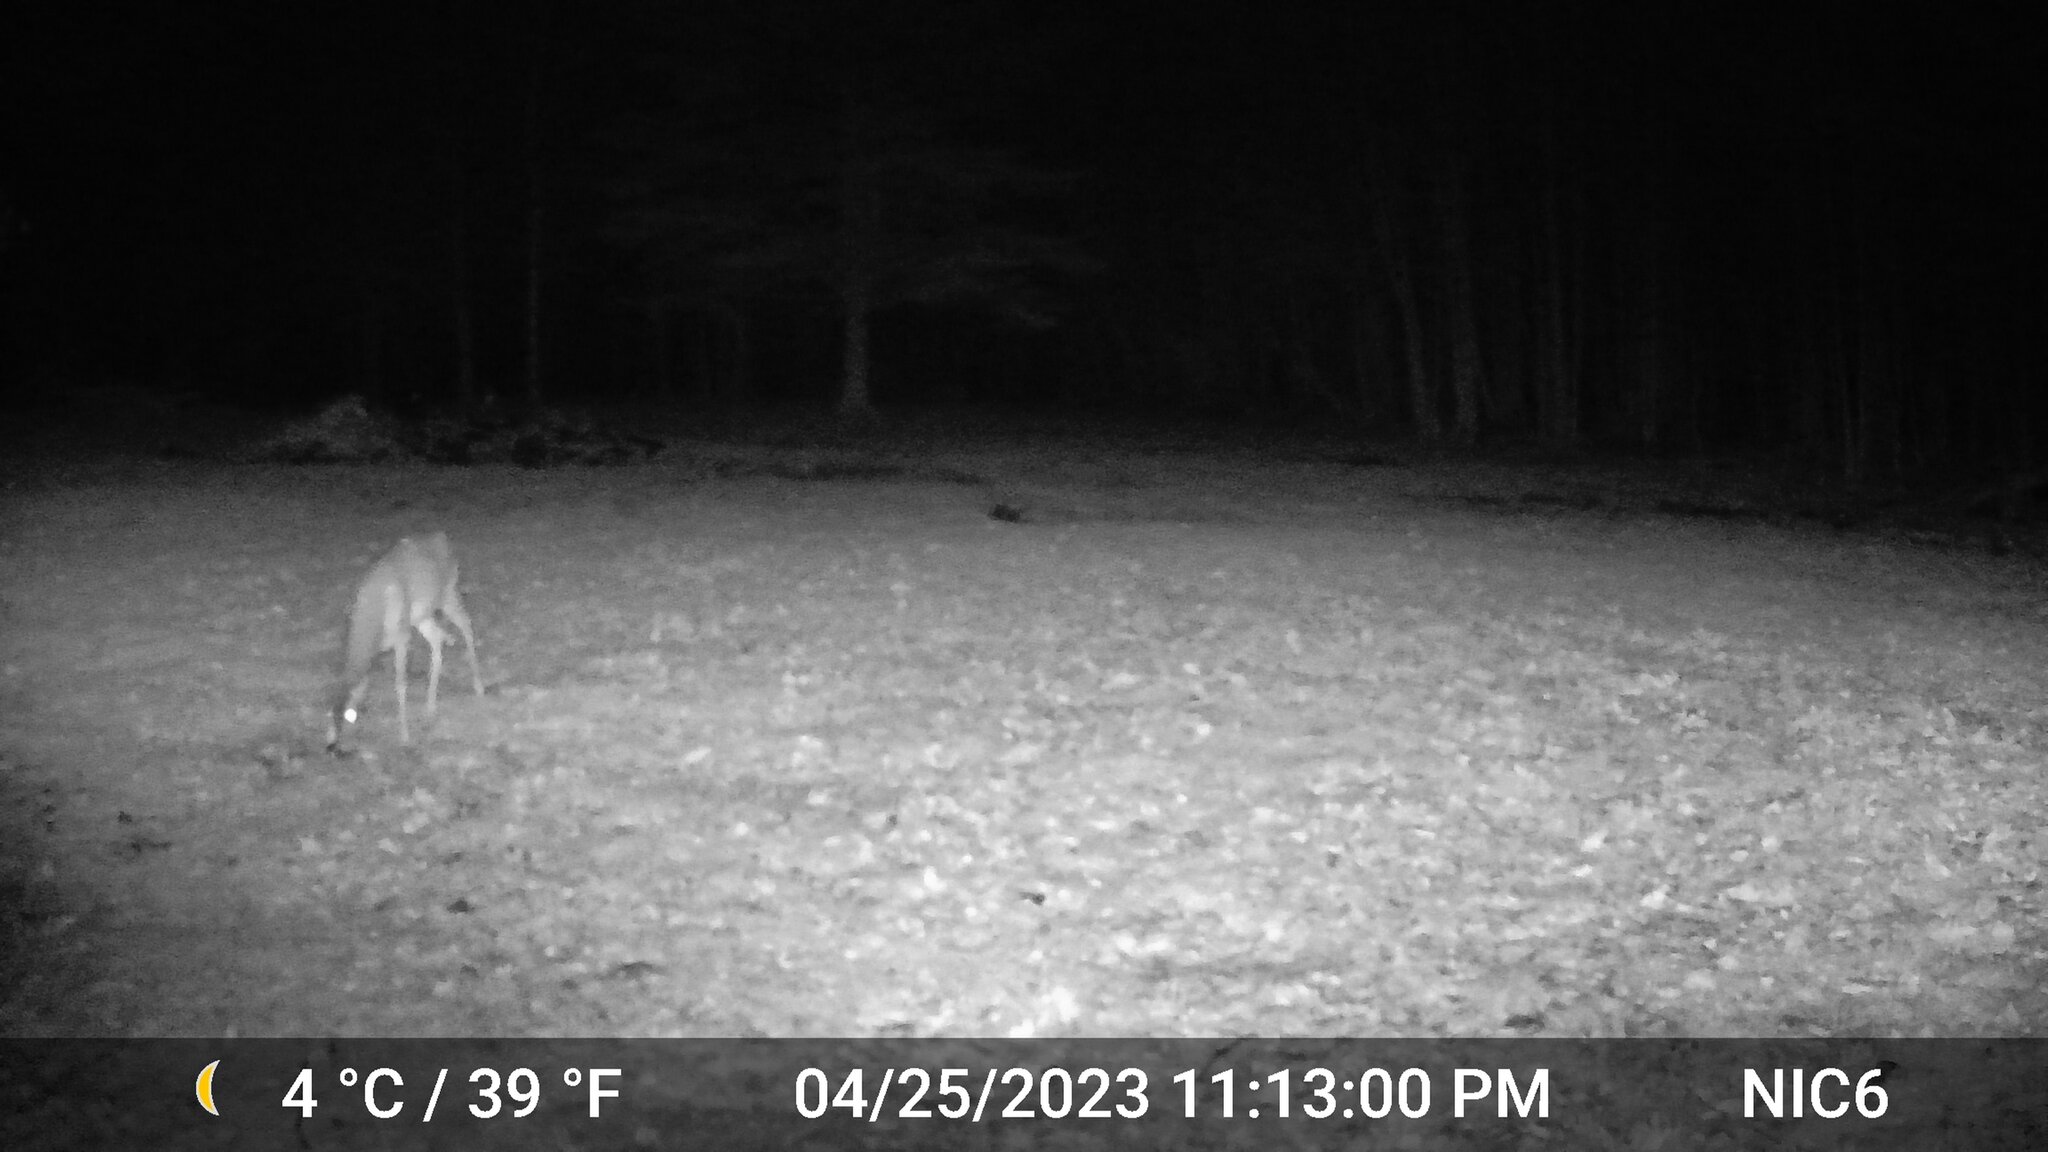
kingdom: Animalia
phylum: Chordata
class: Mammalia
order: Artiodactyla
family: Cervidae
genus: Odocoileus
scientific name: Odocoileus virginianus
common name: White-tailed deer
